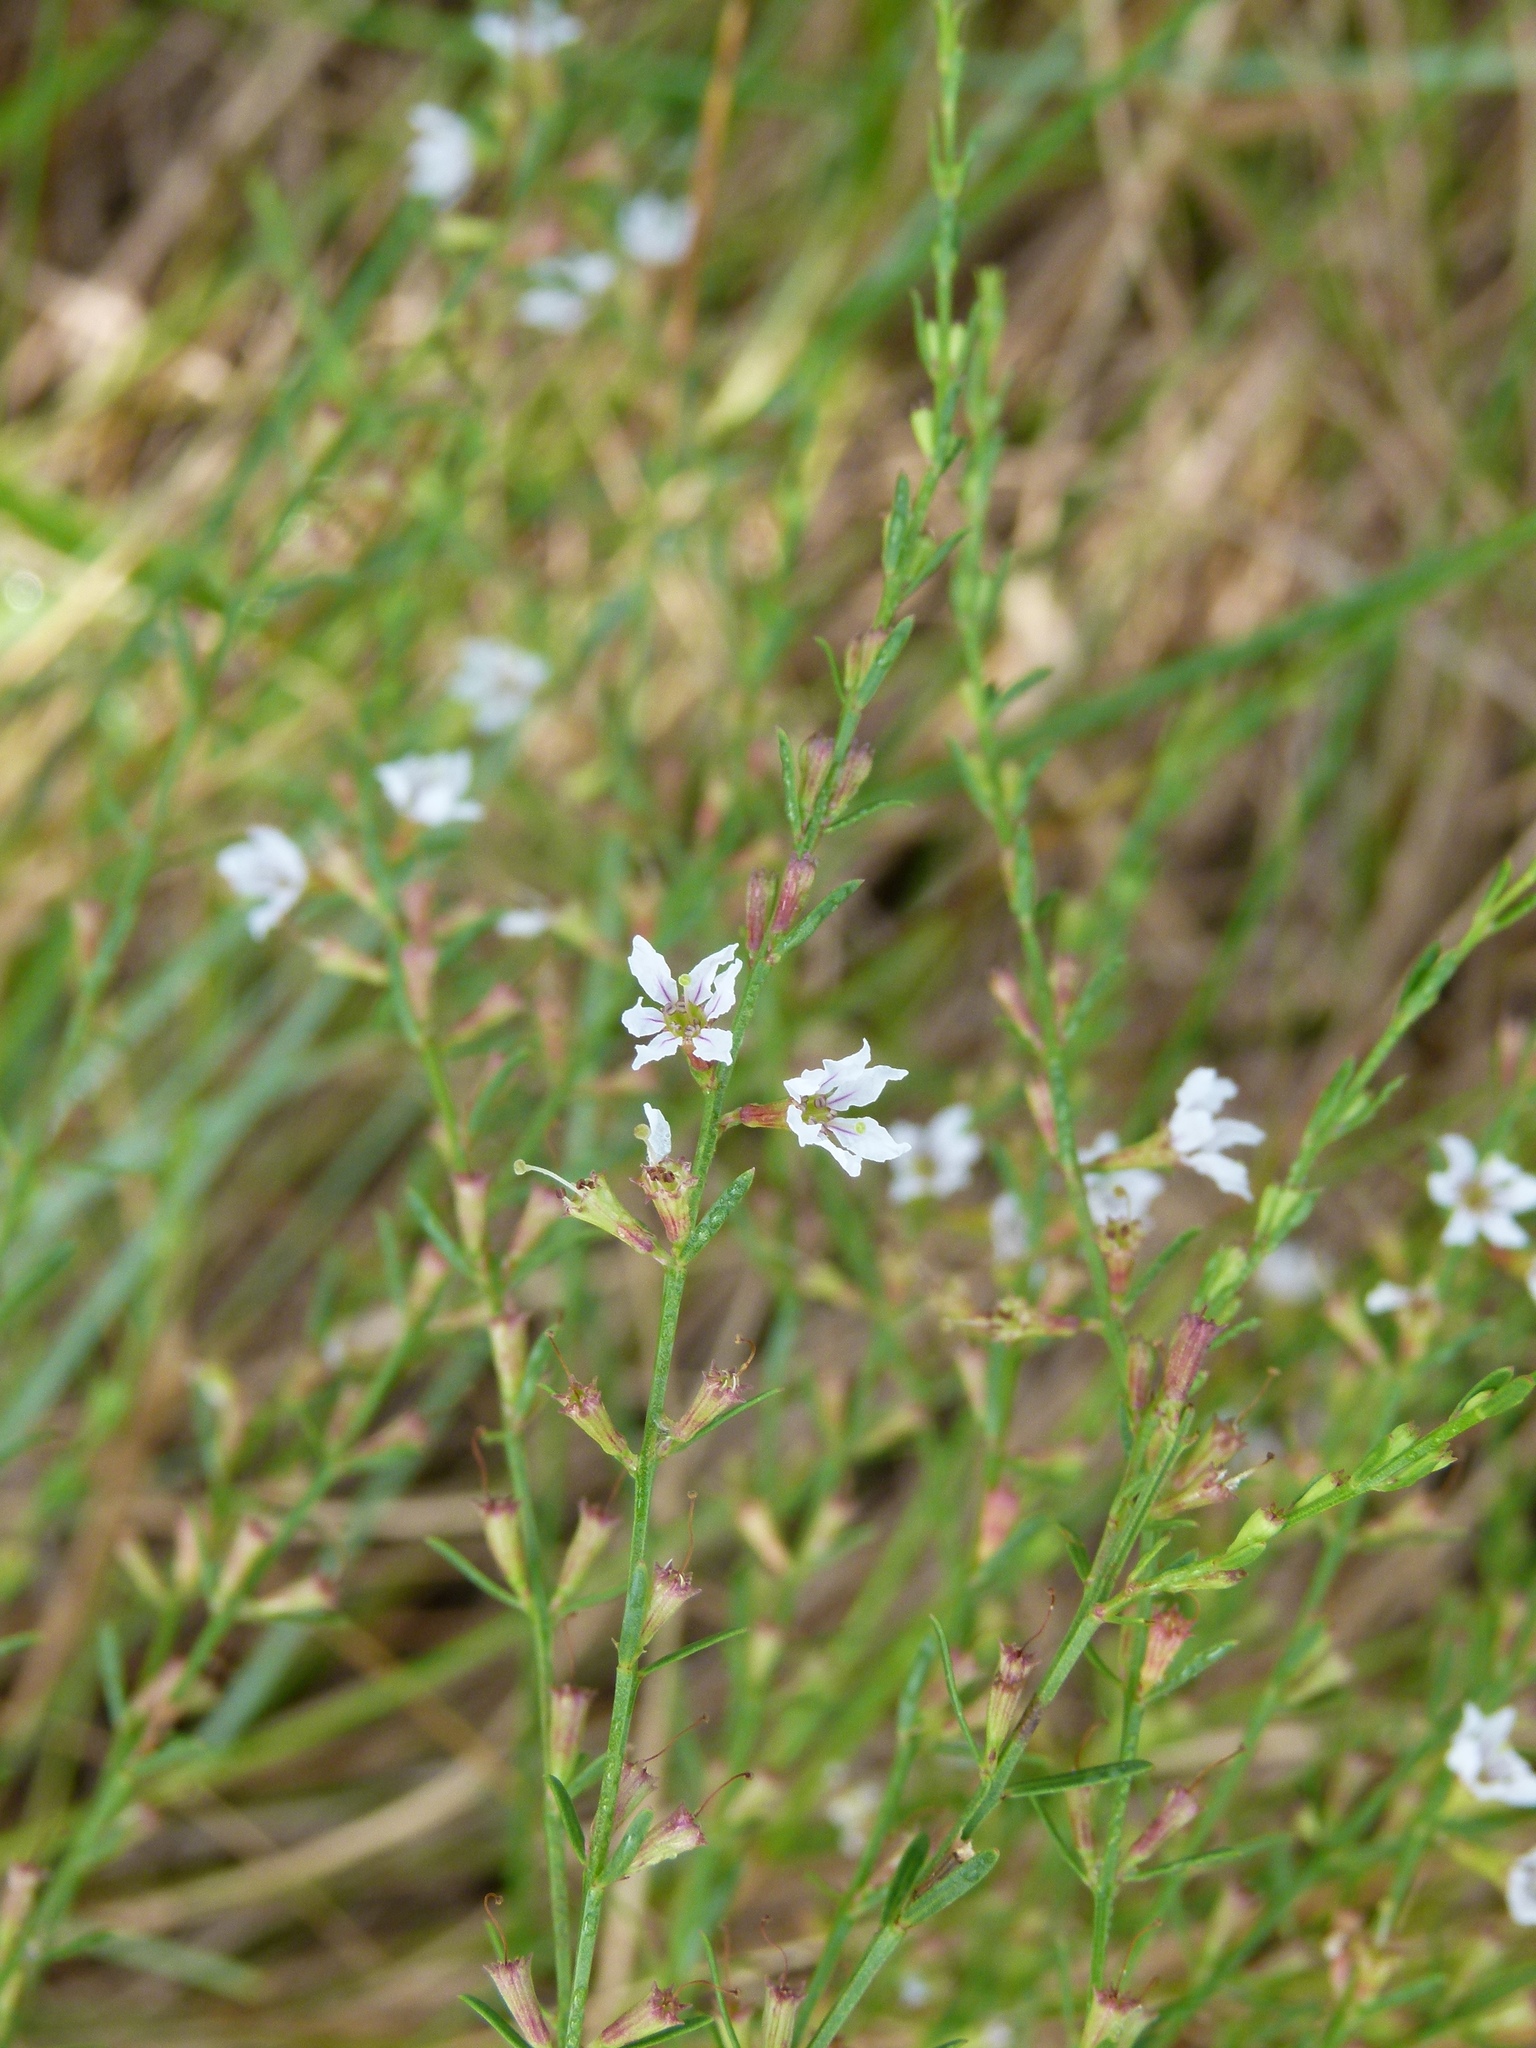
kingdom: Plantae
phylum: Tracheophyta
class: Magnoliopsida
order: Myrtales
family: Lythraceae
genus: Lythrum
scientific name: Lythrum lineare
